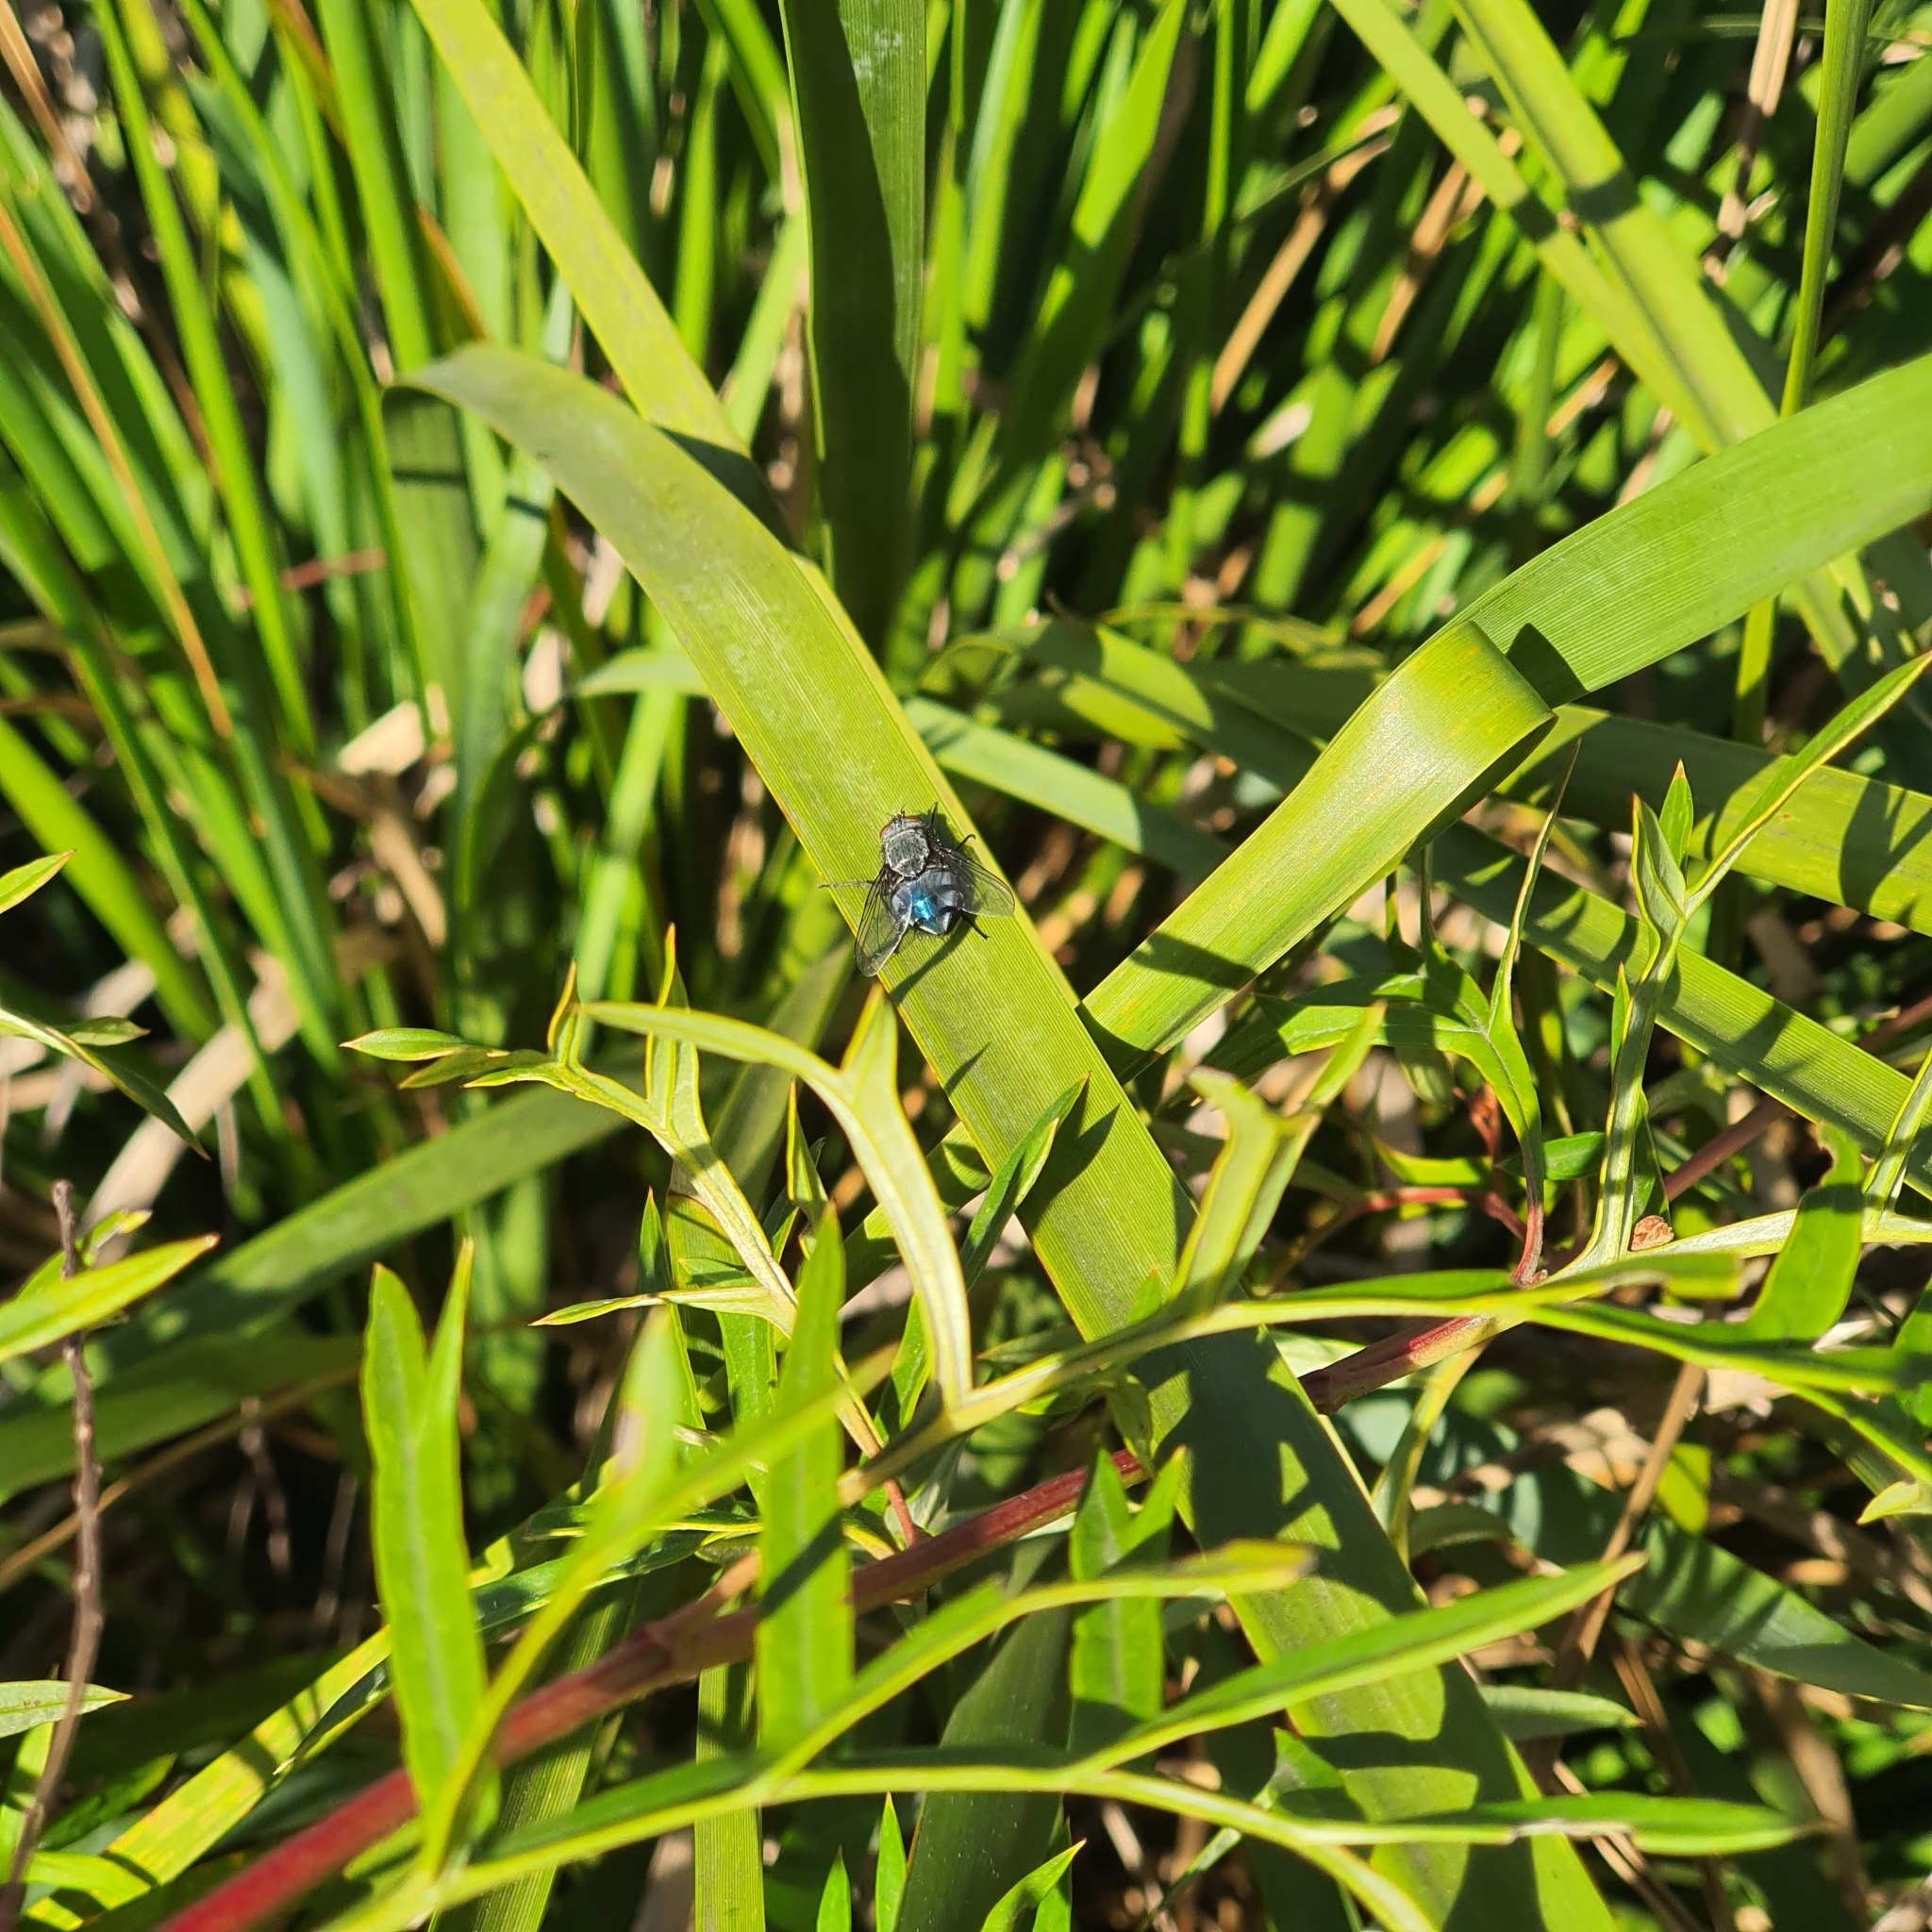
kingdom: Animalia
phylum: Arthropoda
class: Insecta
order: Diptera
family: Calliphoridae
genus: Calliphora
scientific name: Calliphora vicina
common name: Common blow flie
